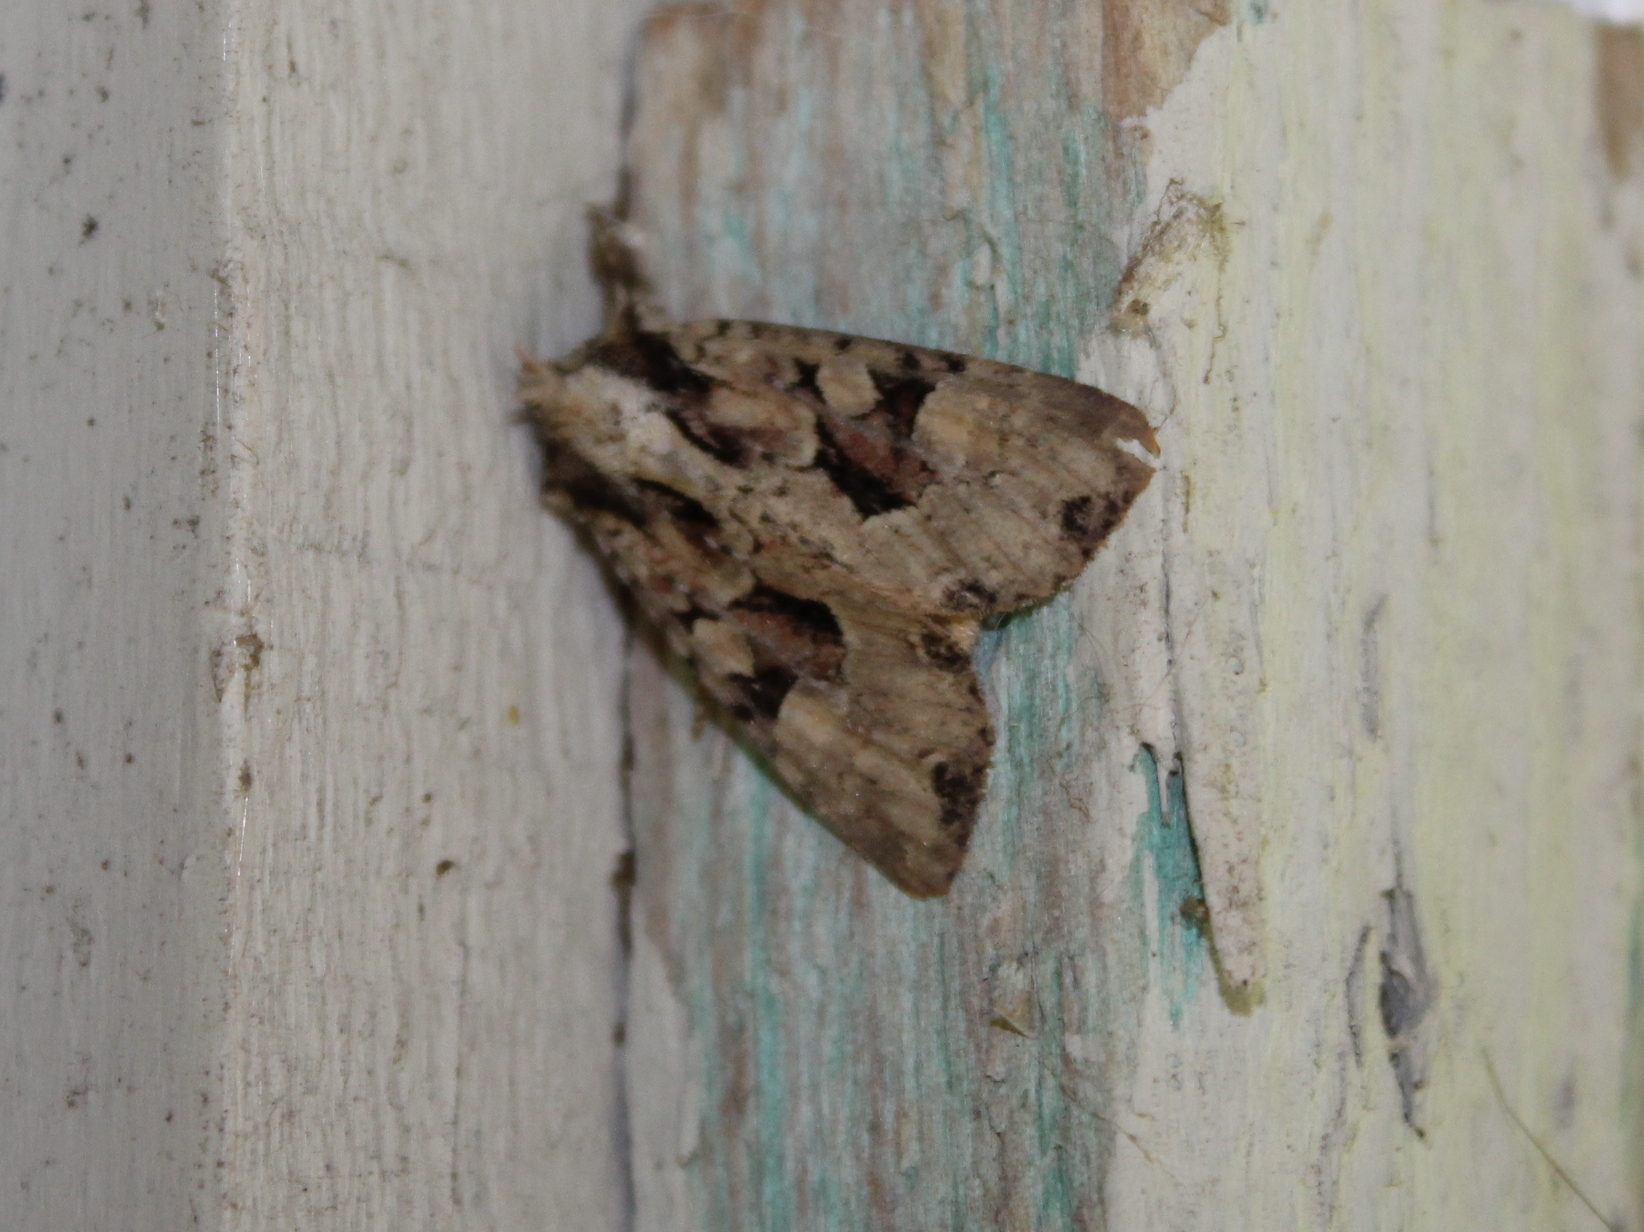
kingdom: Animalia
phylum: Arthropoda
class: Insecta
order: Lepidoptera
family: Noctuidae
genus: Apamea
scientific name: Apamea indocilis
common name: Ignorant apamea moth
